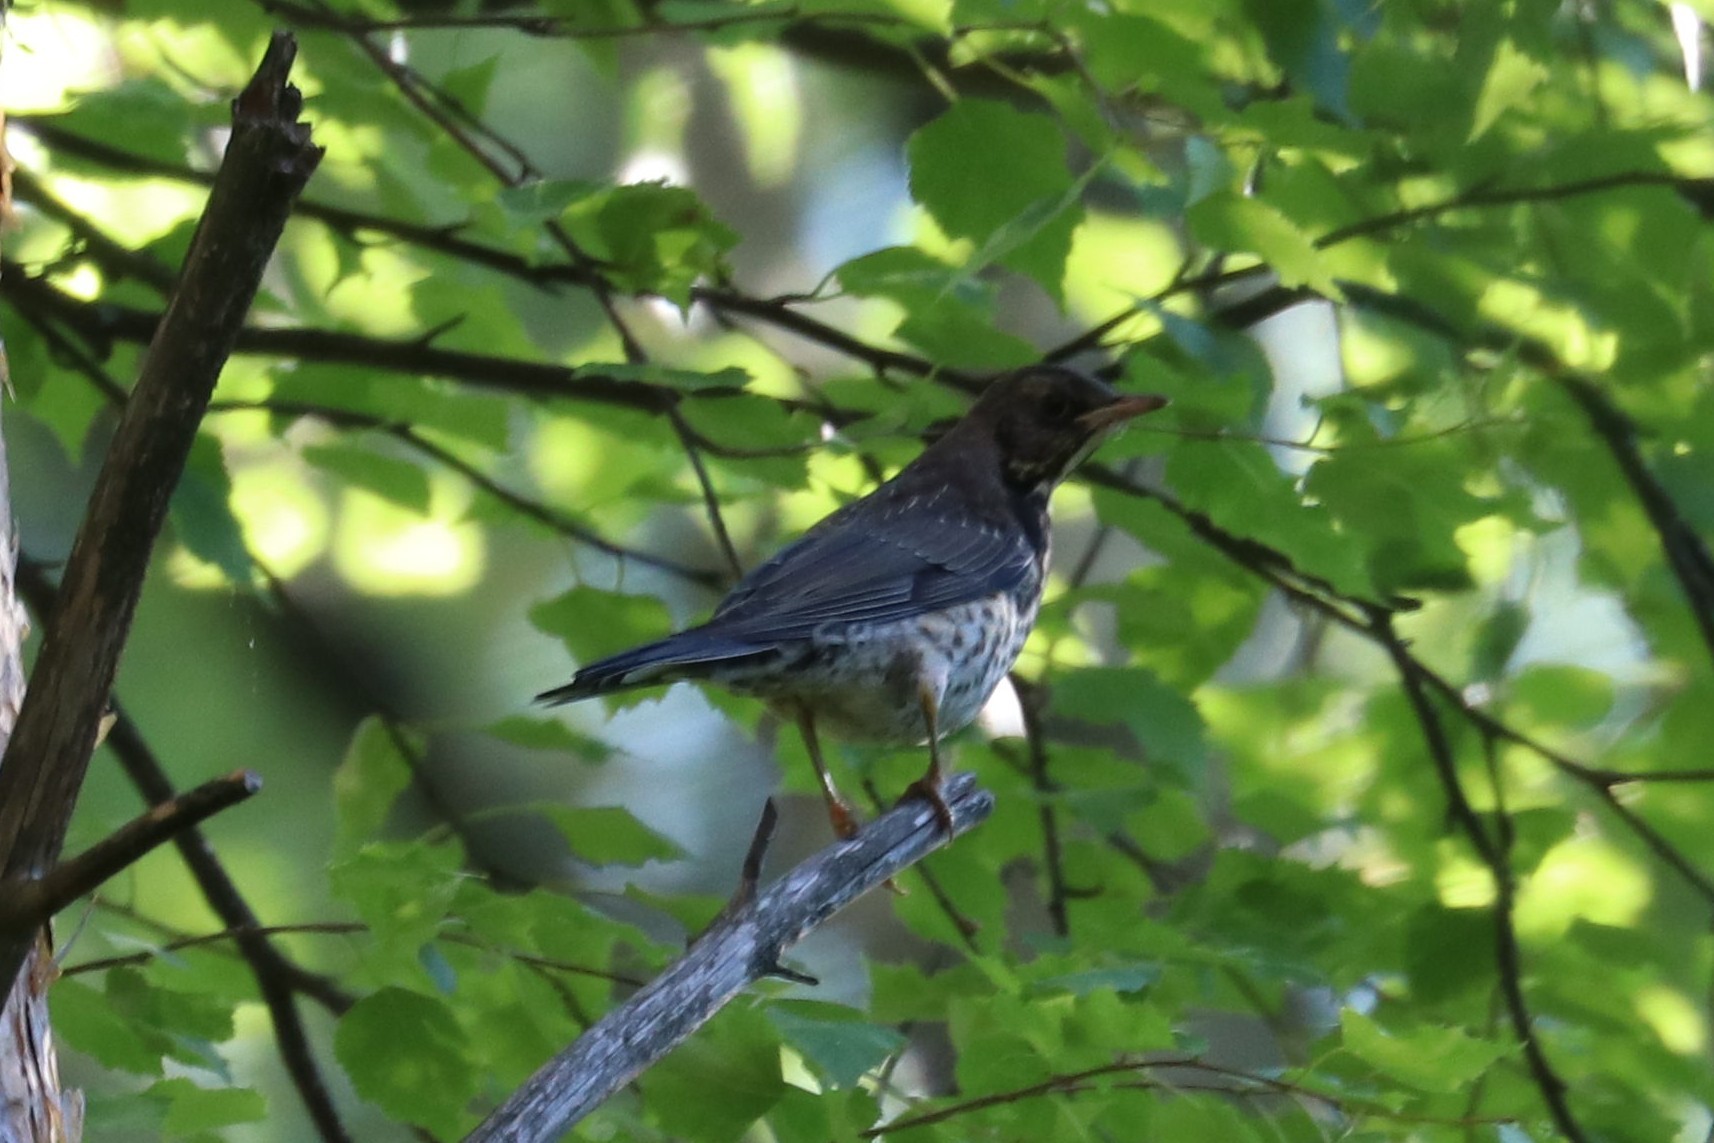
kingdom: Animalia
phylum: Chordata
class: Aves
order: Passeriformes
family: Turdidae
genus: Turdus
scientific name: Turdus pilaris
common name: Fieldfare
